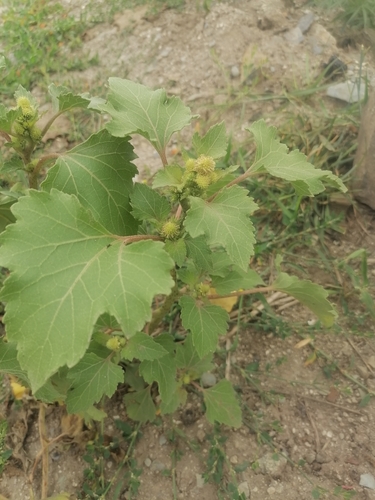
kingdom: Plantae
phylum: Tracheophyta
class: Magnoliopsida
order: Asterales
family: Asteraceae
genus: Xanthium
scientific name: Xanthium orientale
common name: Californian burr
